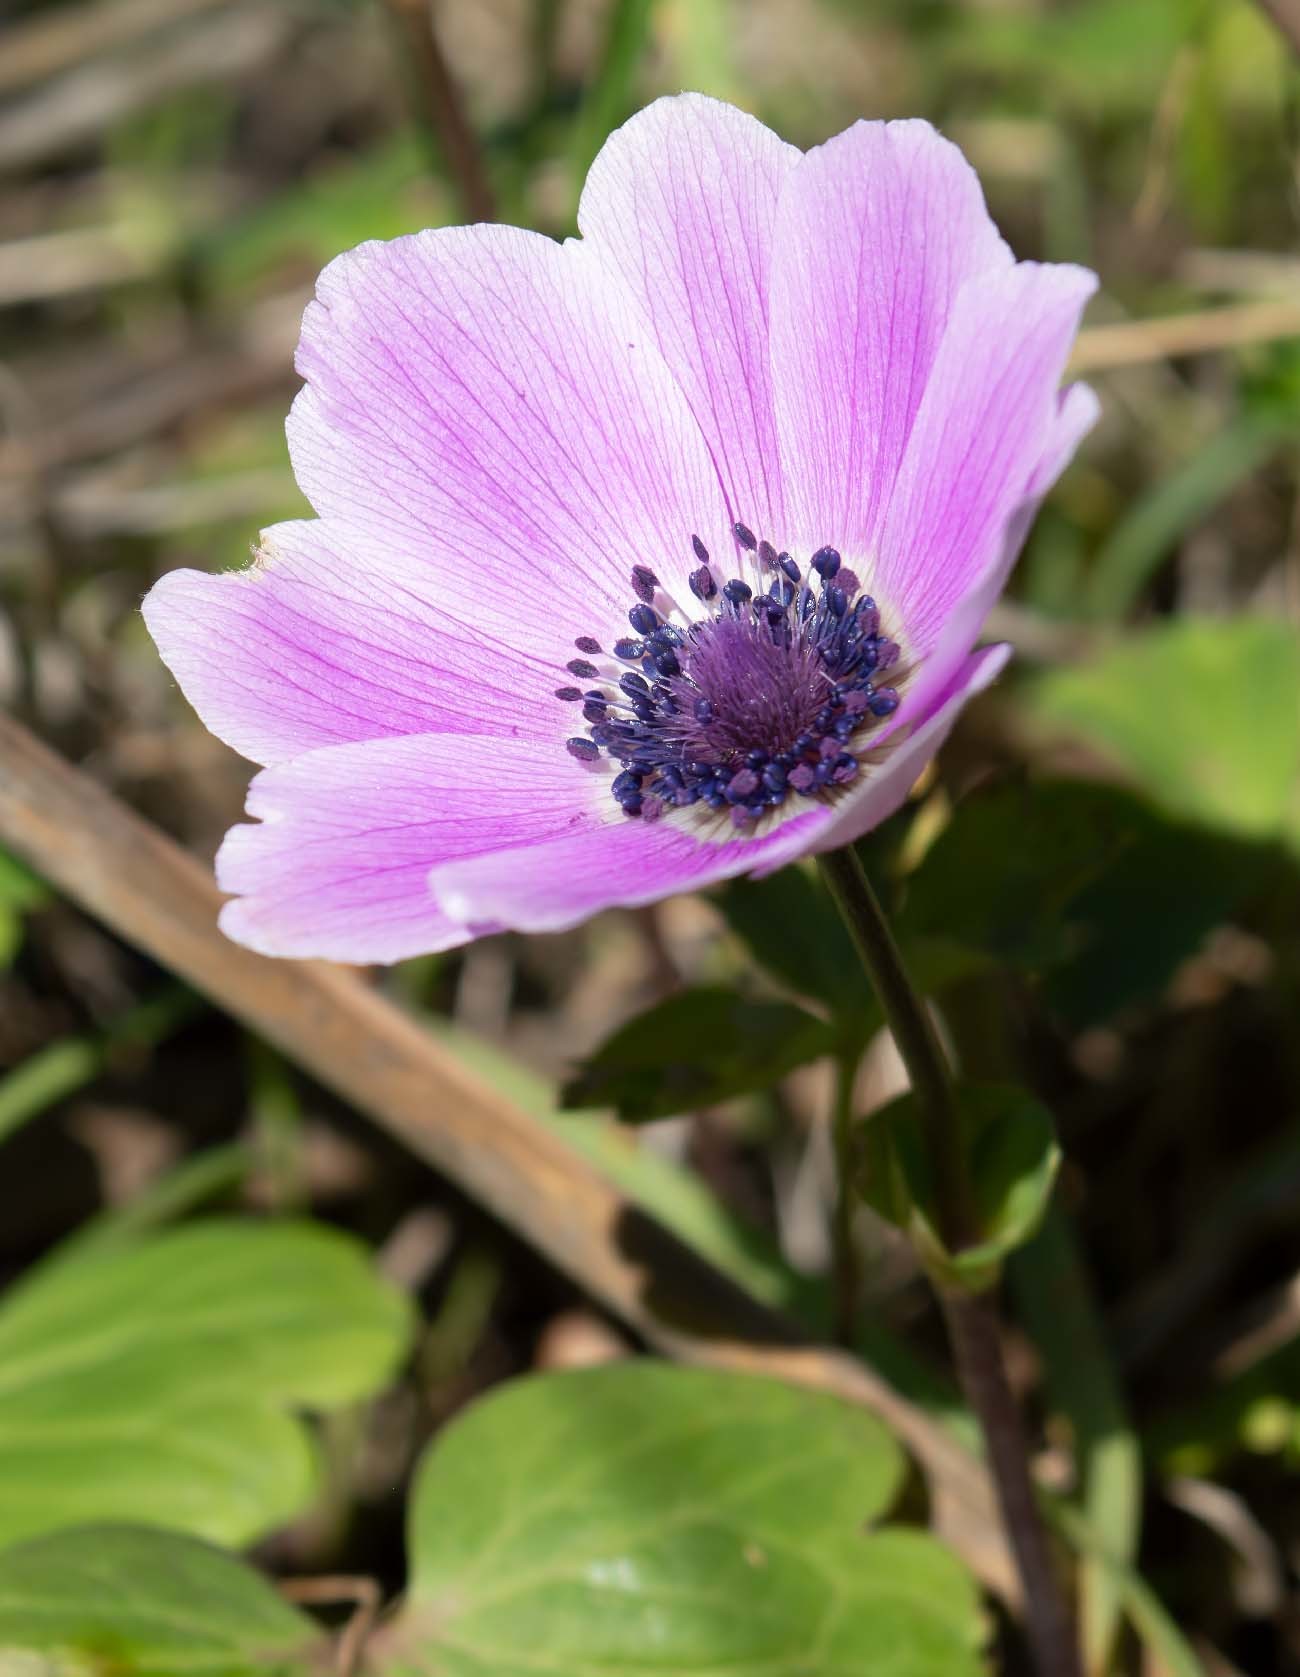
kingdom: Plantae
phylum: Tracheophyta
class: Magnoliopsida
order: Ranunculales
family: Ranunculaceae
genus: Anemone
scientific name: Anemone pavonina
